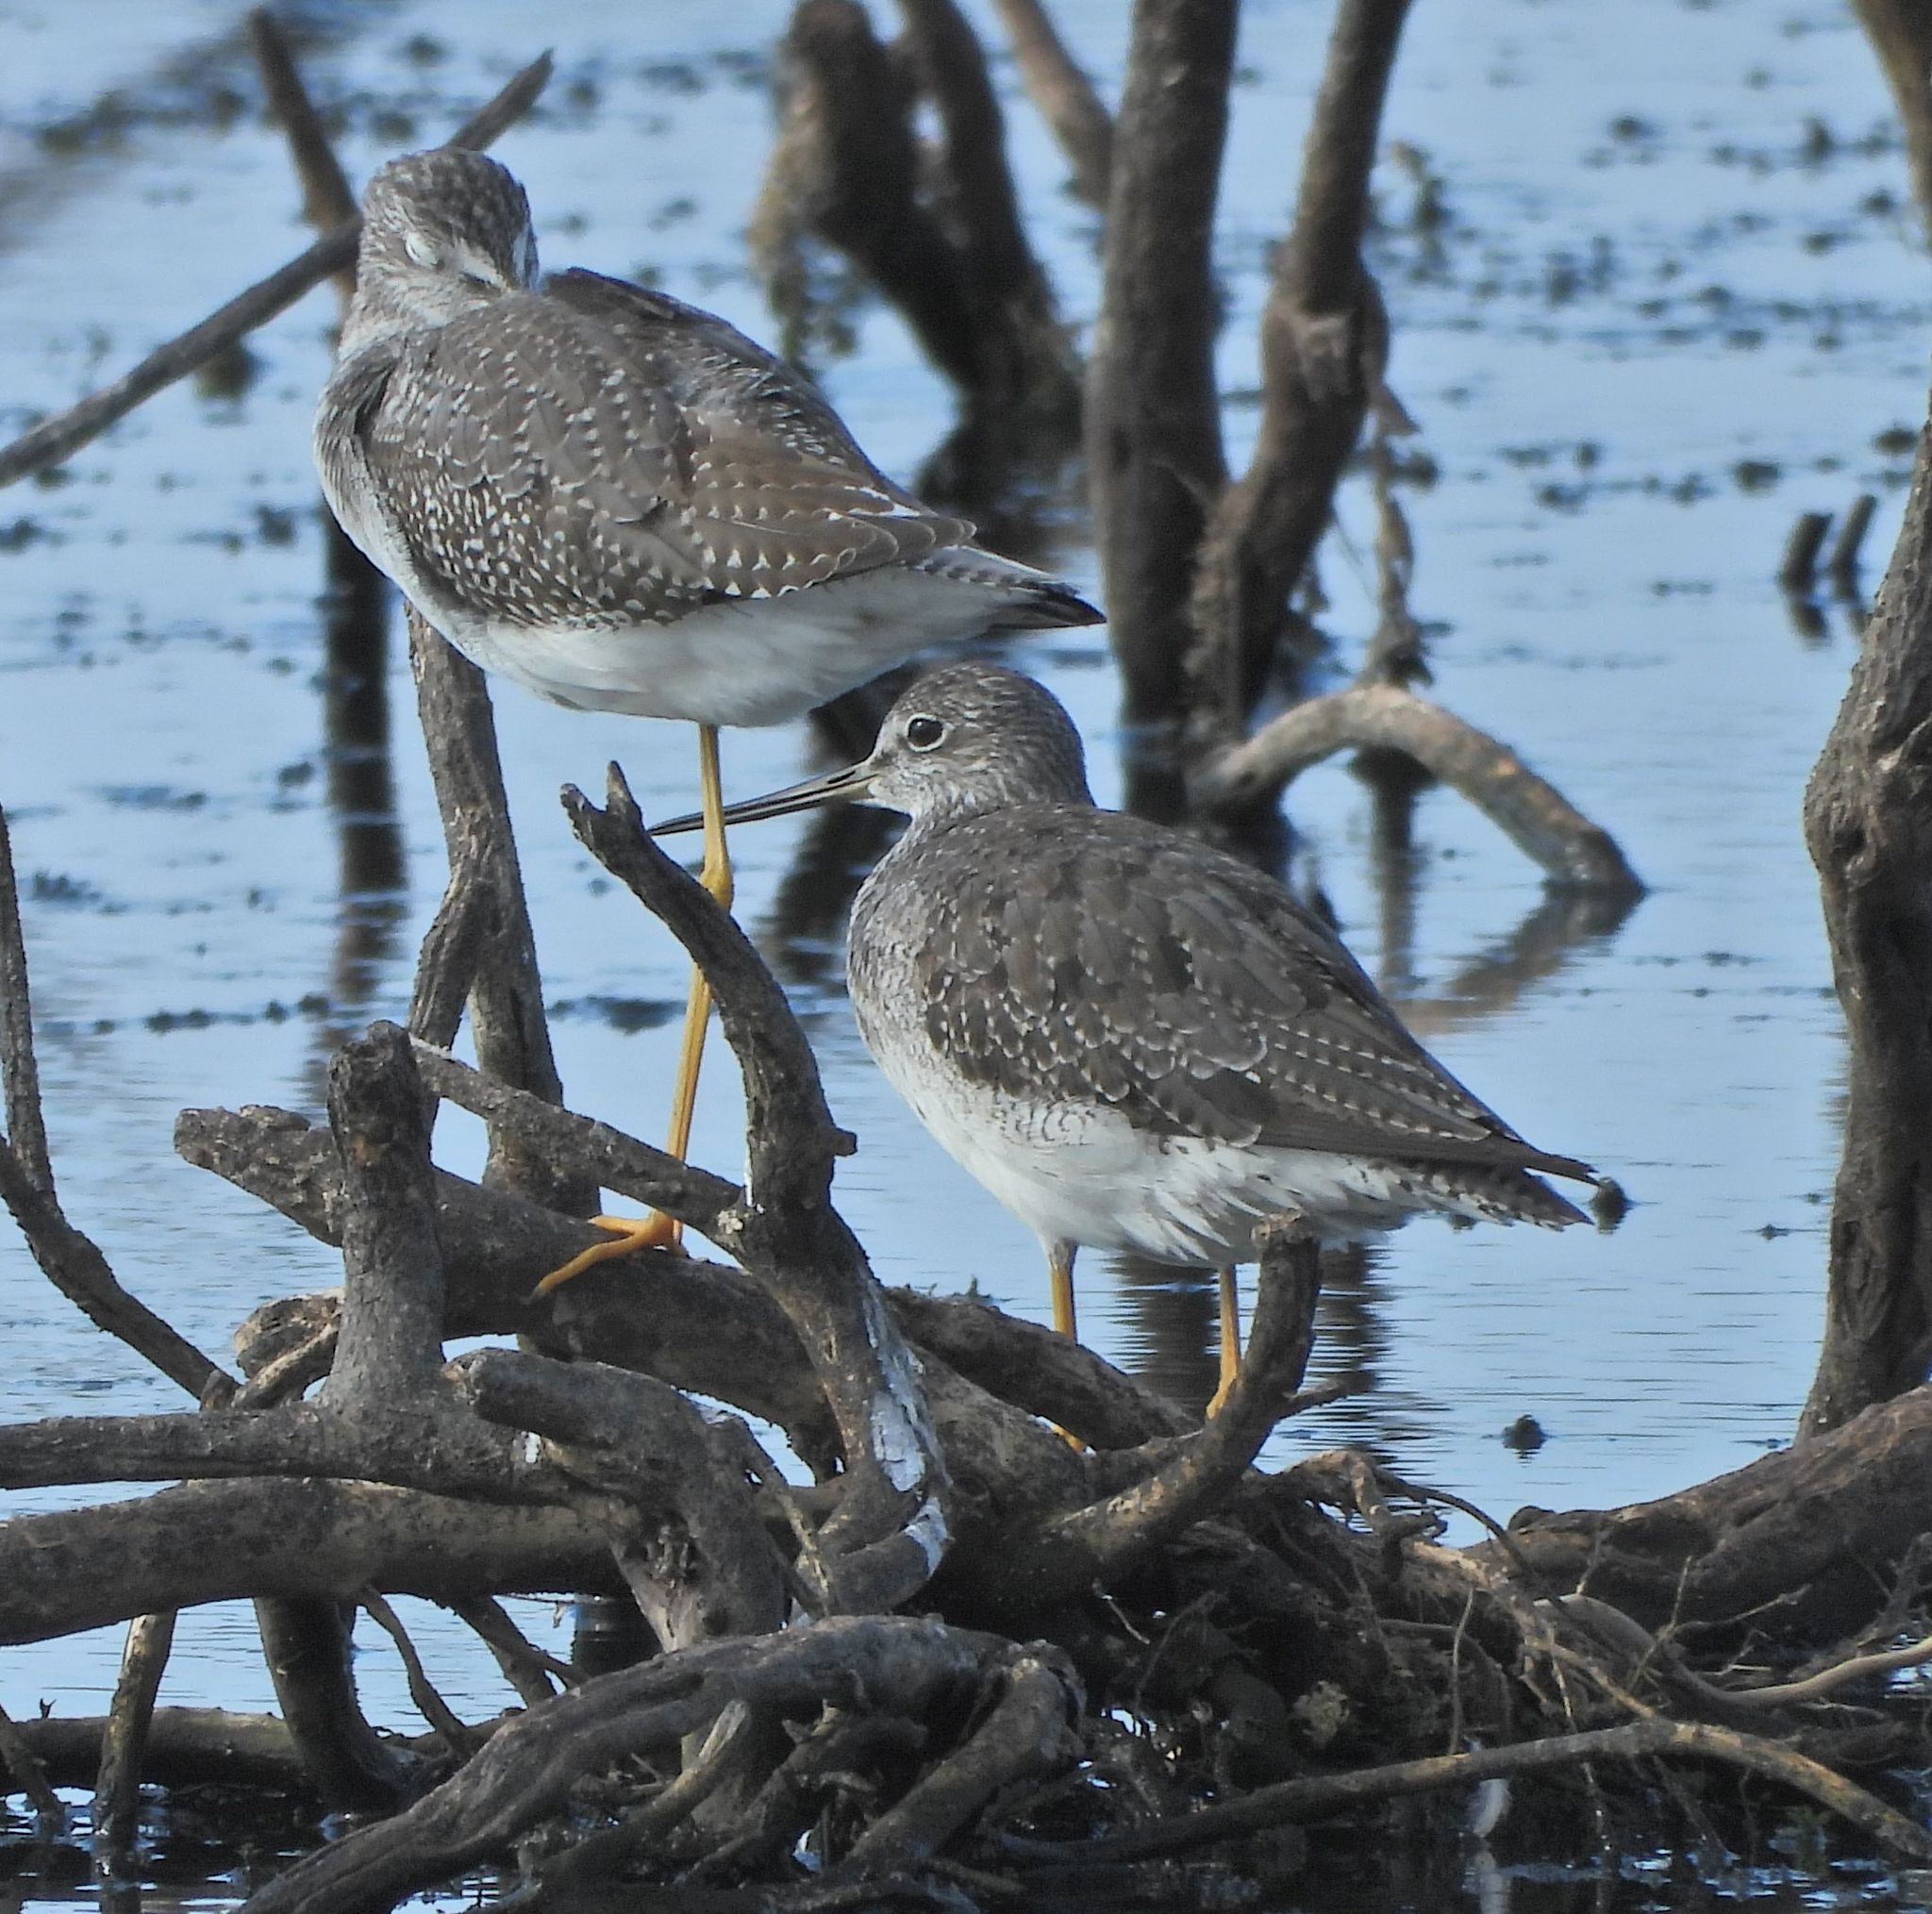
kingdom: Animalia
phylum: Chordata
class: Aves
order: Charadriiformes
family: Scolopacidae
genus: Tringa
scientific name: Tringa melanoleuca
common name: Greater yellowlegs
